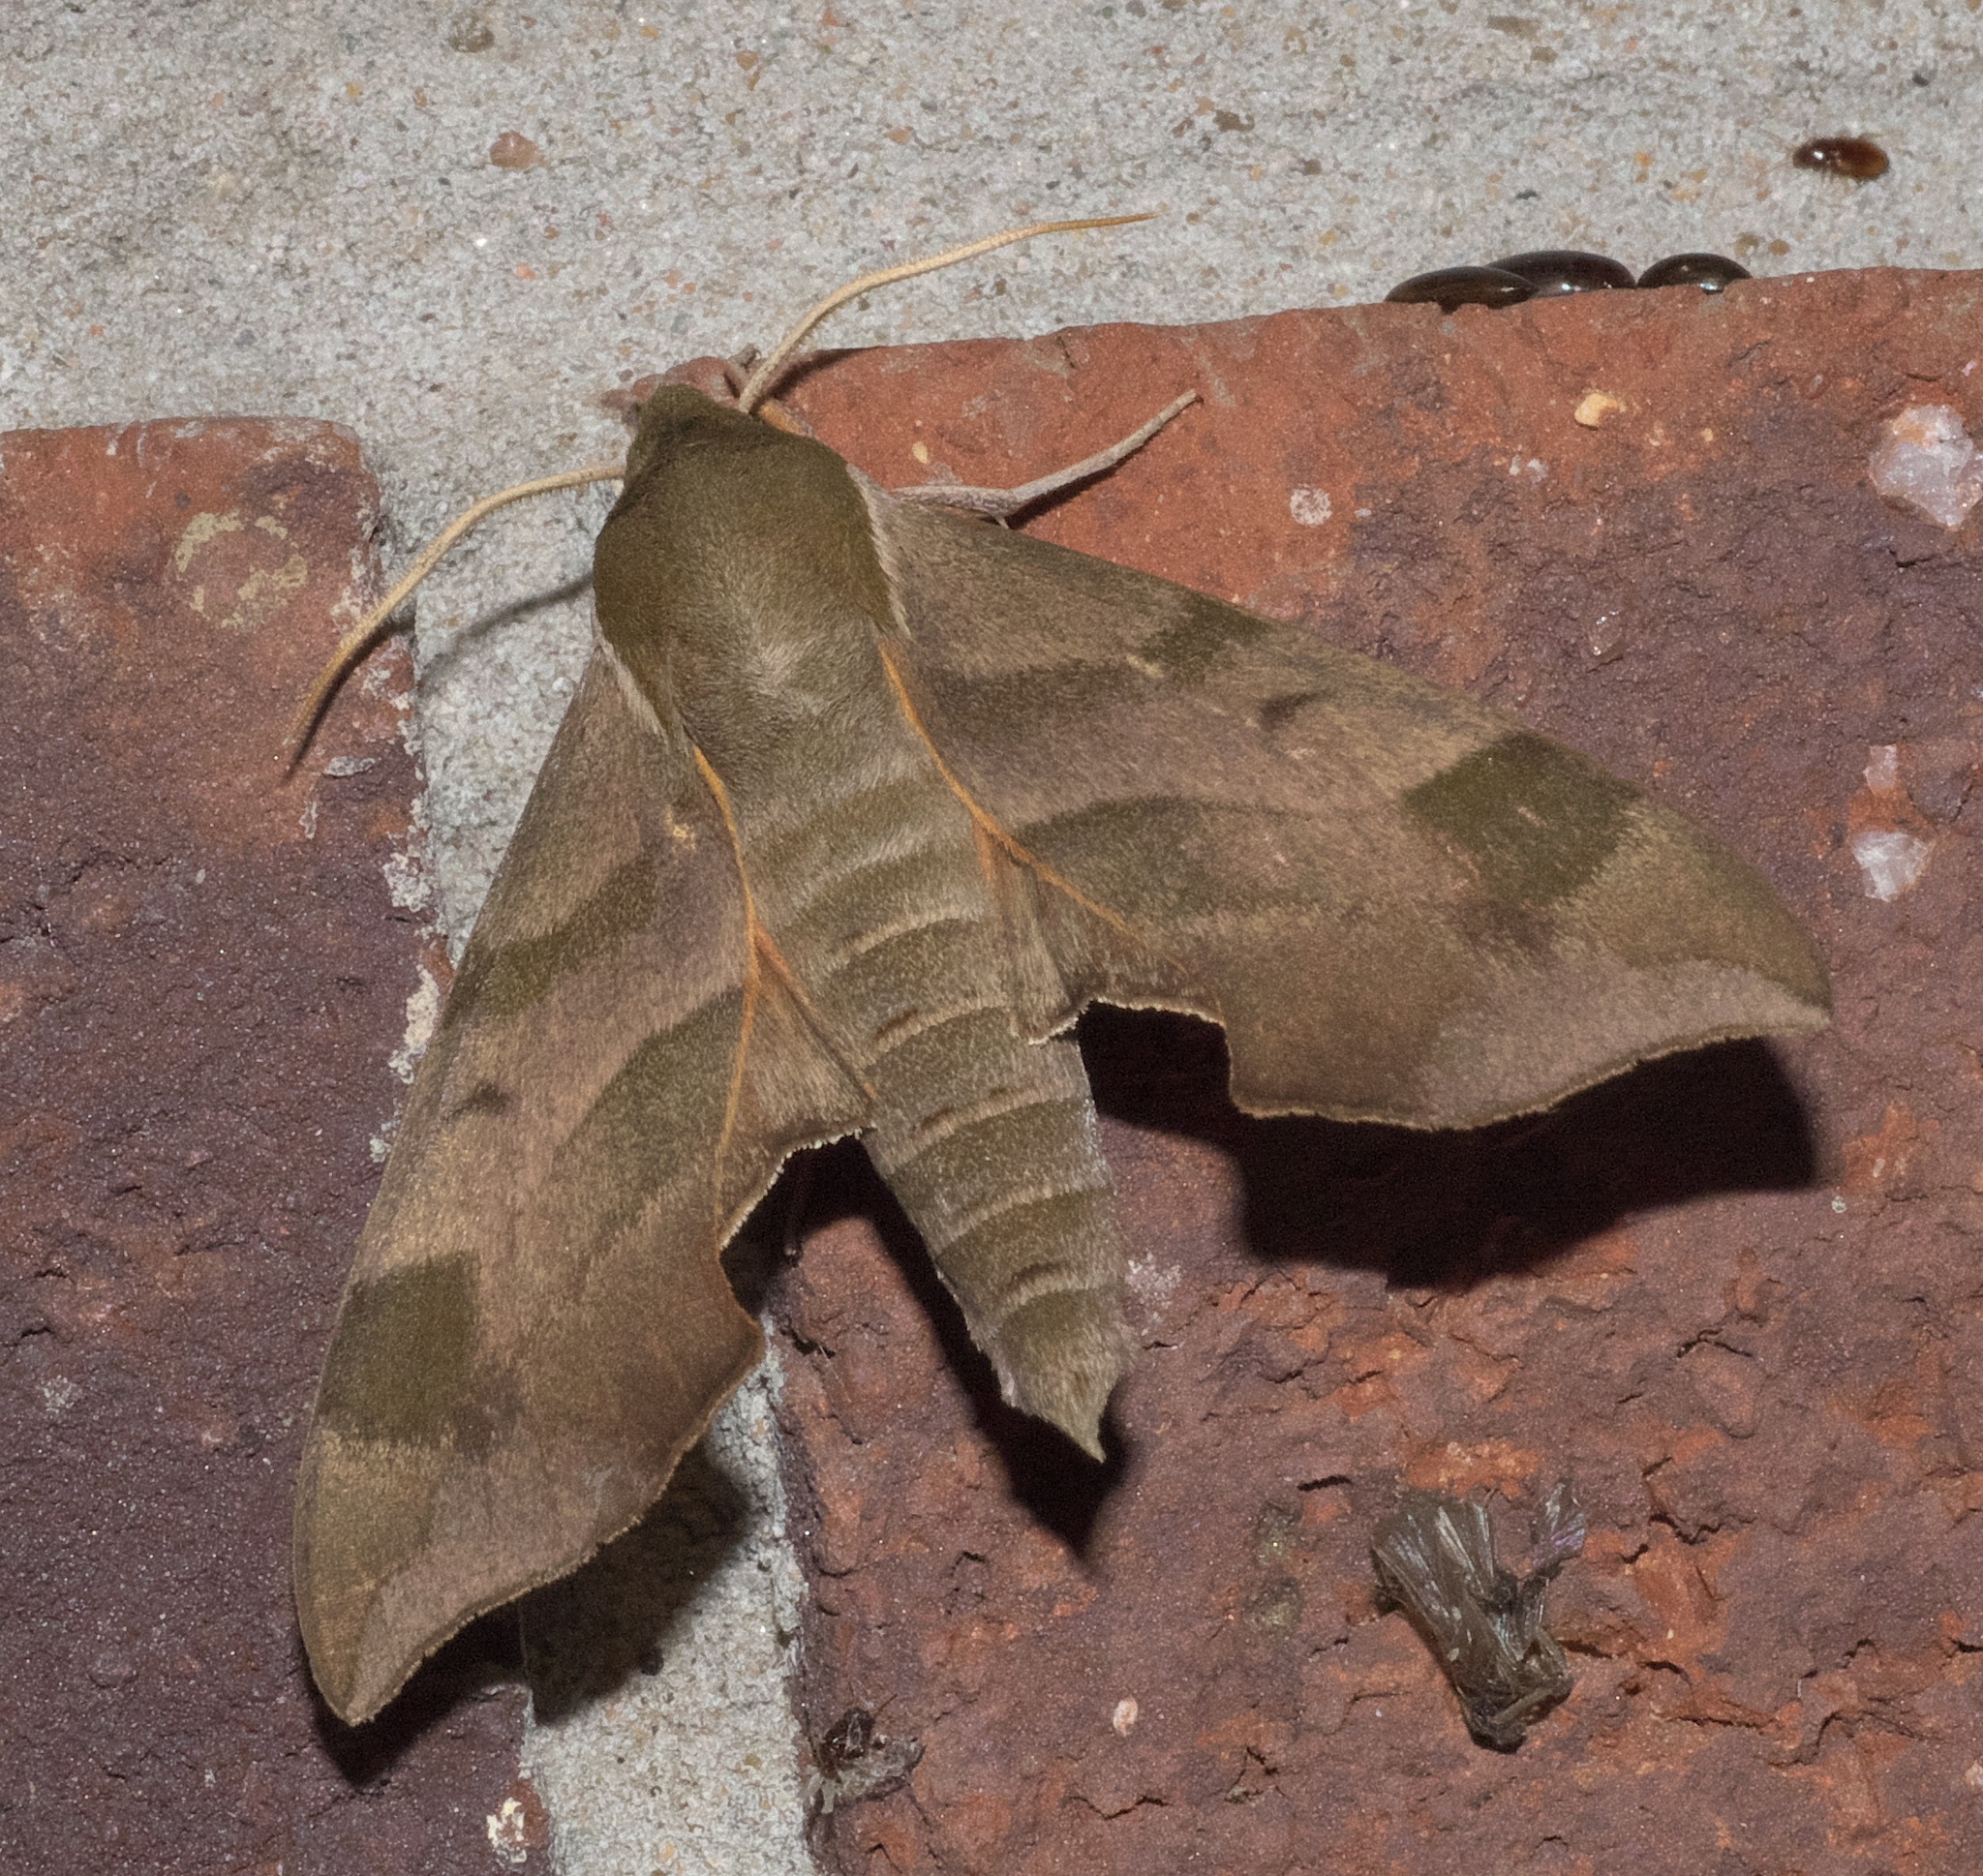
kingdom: Animalia
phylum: Arthropoda
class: Insecta
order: Lepidoptera
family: Sphingidae
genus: Amorpha
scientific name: Amorpha juglandis
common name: Walnut sphinx
